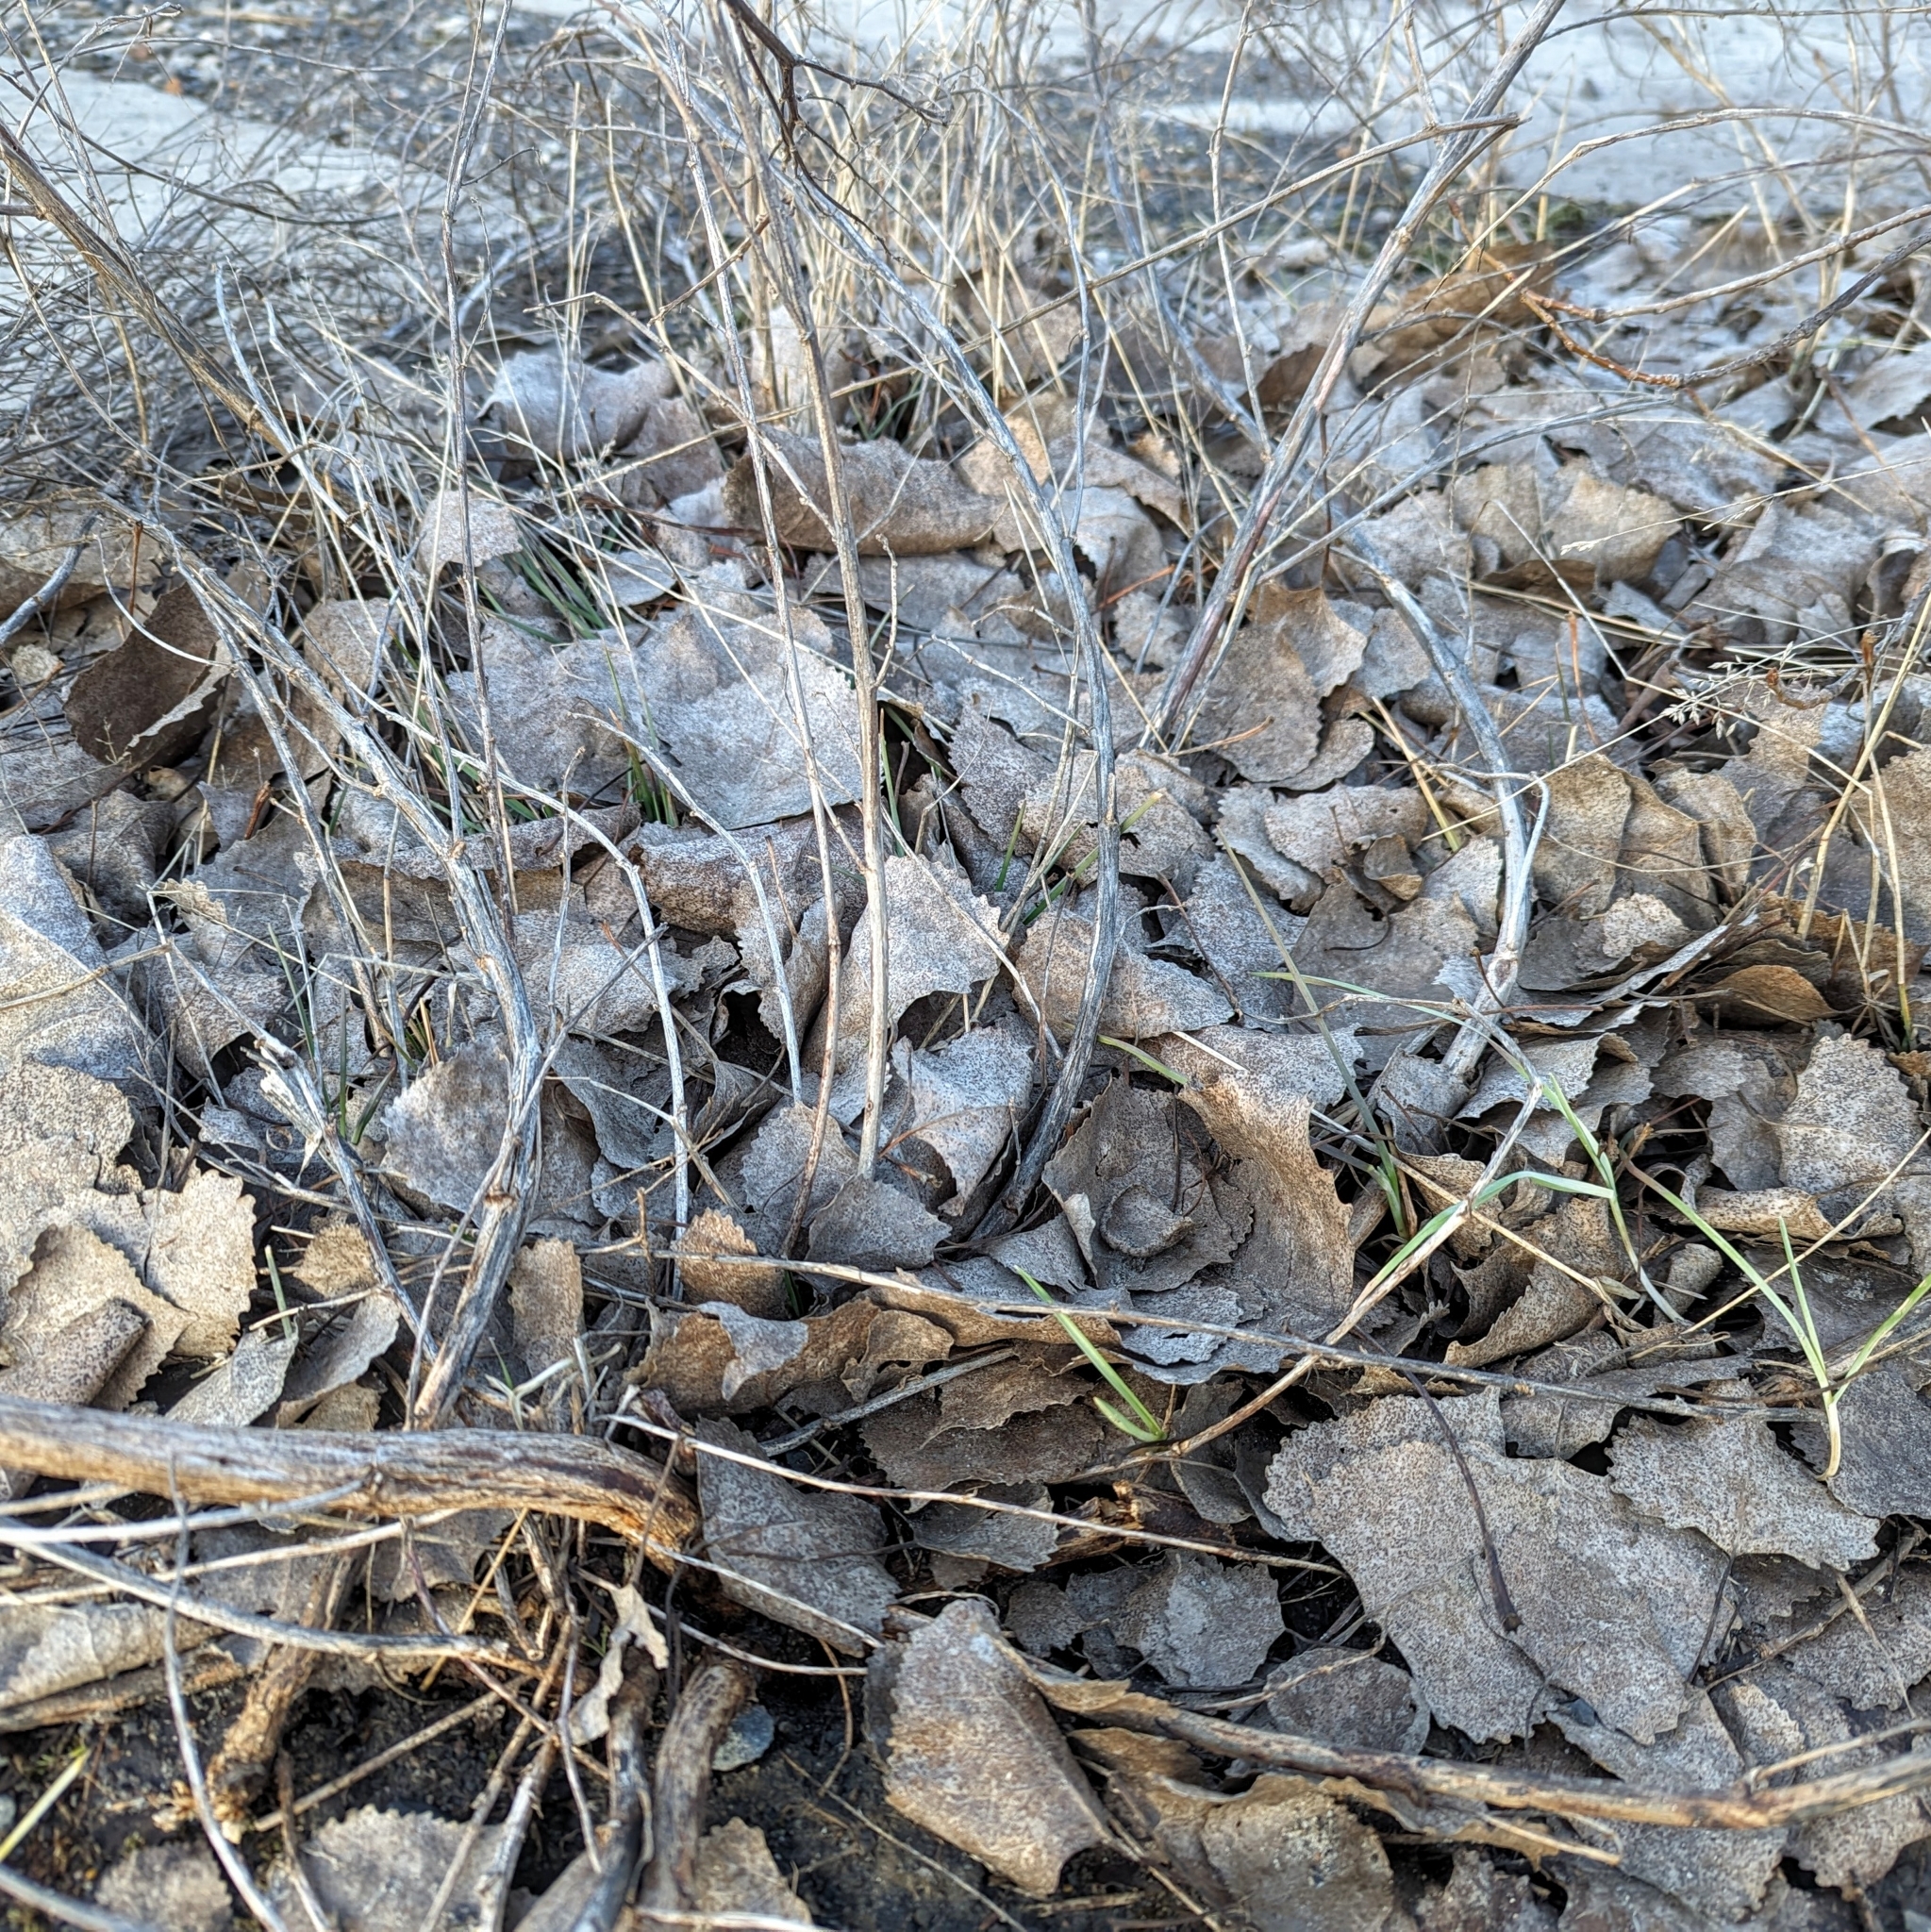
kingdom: Plantae
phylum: Tracheophyta
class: Magnoliopsida
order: Malpighiales
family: Salicaceae
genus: Populus
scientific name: Populus deltoides
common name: Eastern cottonwood
